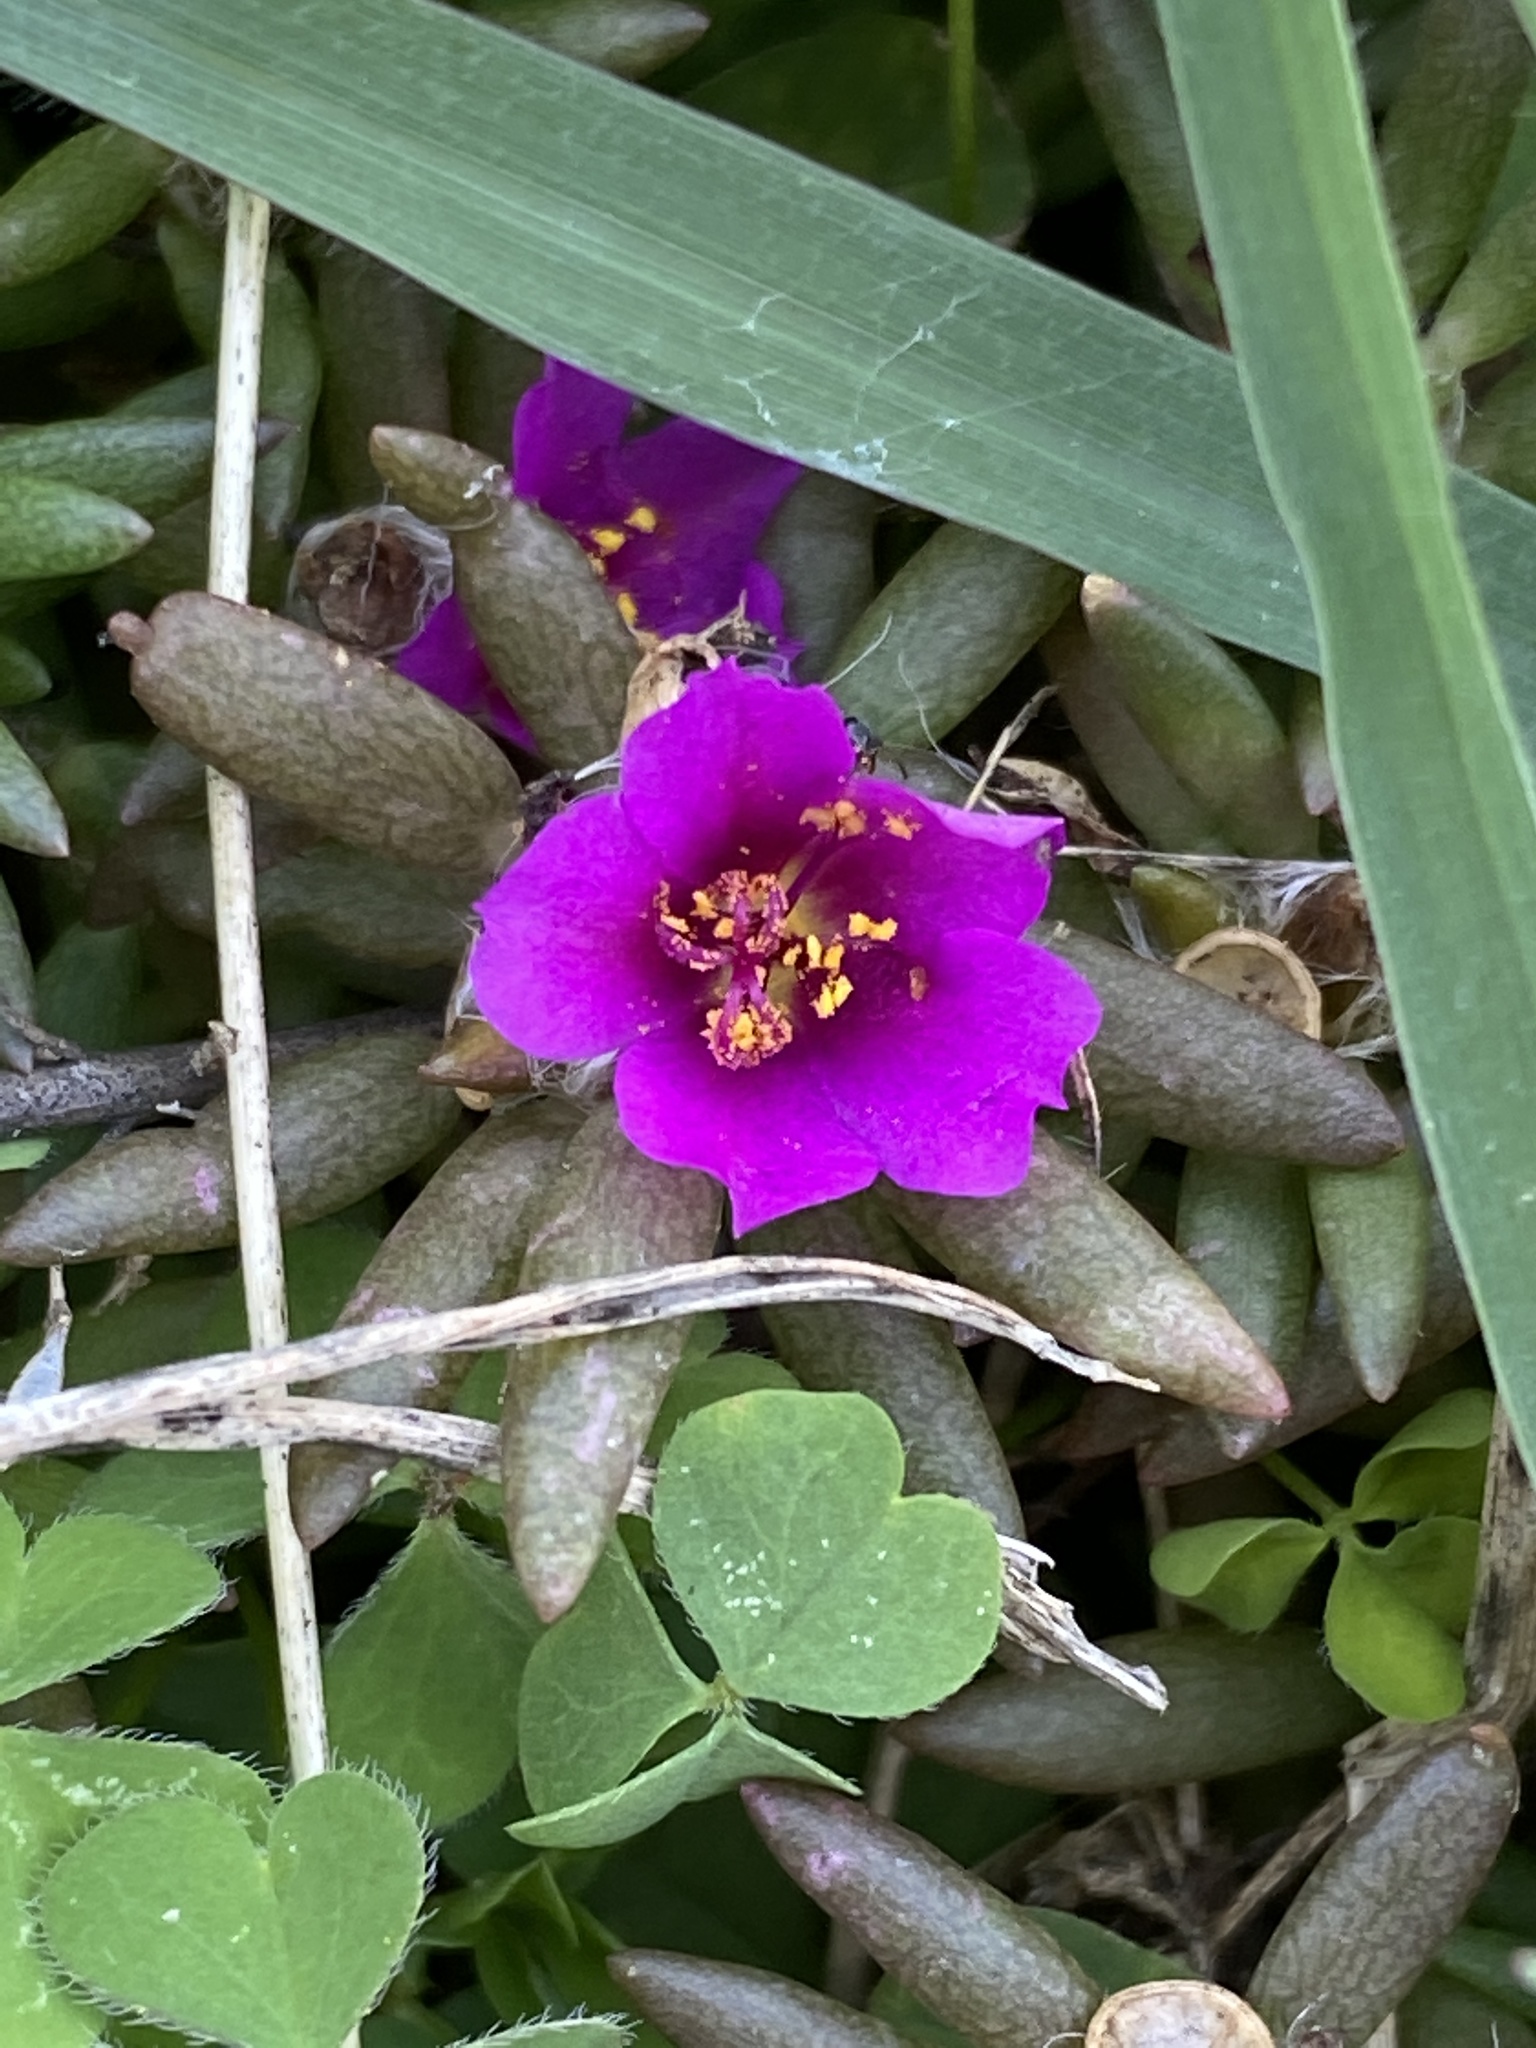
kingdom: Plantae
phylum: Tracheophyta
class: Magnoliopsida
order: Caryophyllales
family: Portulacaceae
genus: Portulaca
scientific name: Portulaca pilosa
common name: Kiss me quick
